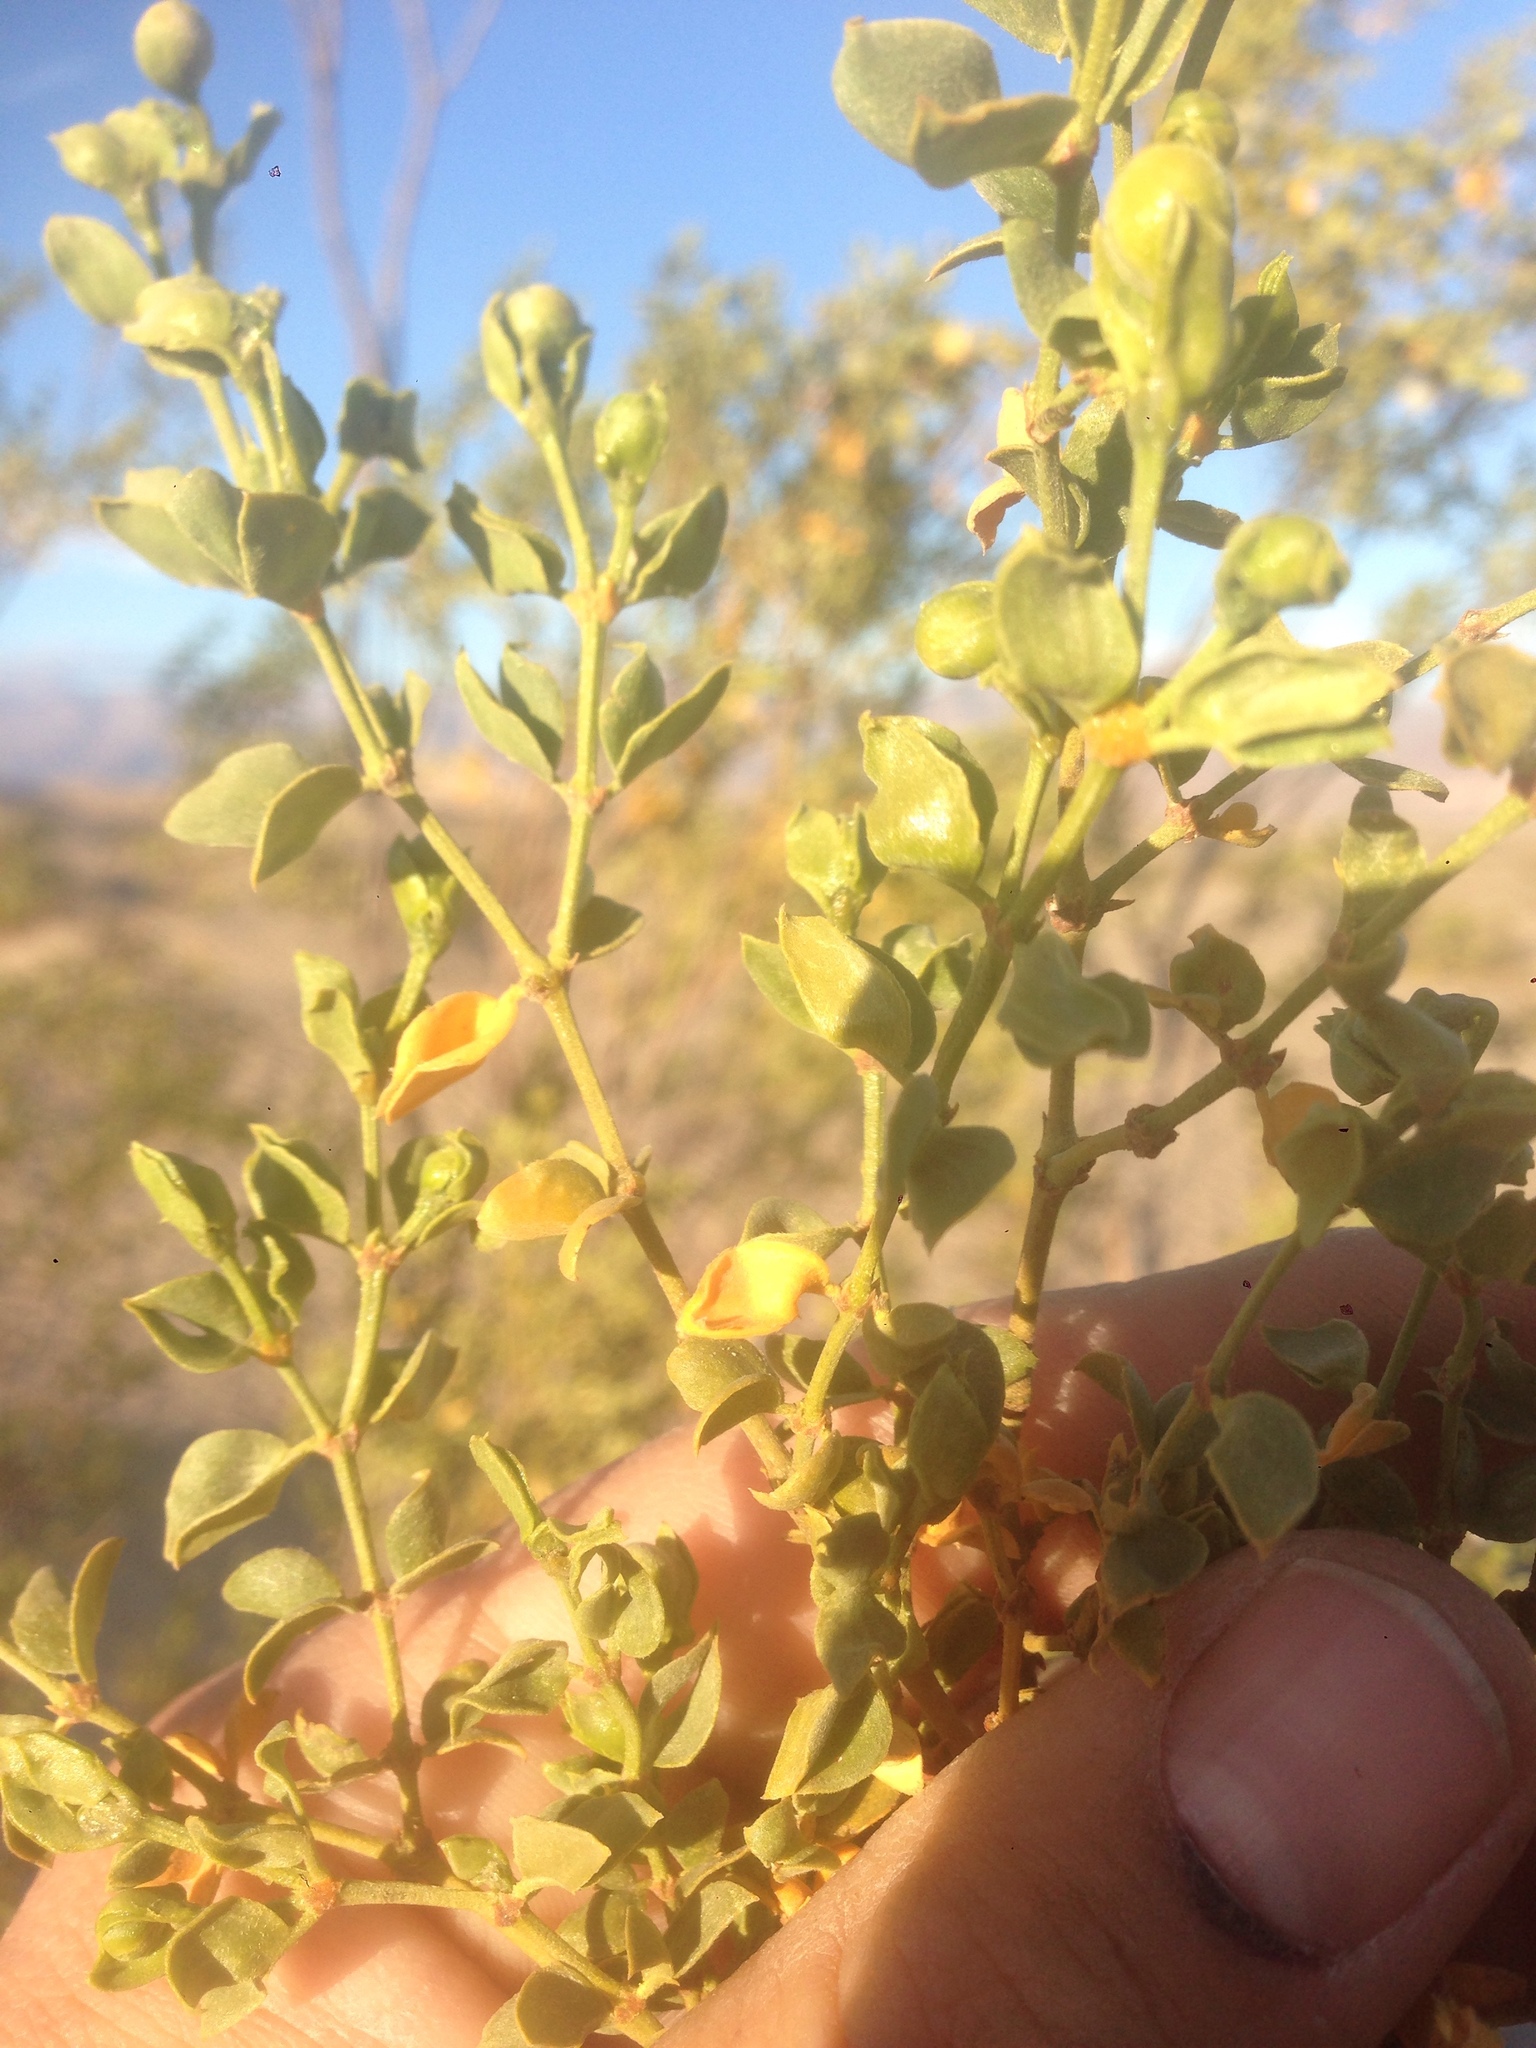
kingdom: Plantae
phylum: Tracheophyta
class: Magnoliopsida
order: Zygophyllales
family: Zygophyllaceae
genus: Larrea
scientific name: Larrea tridentata
